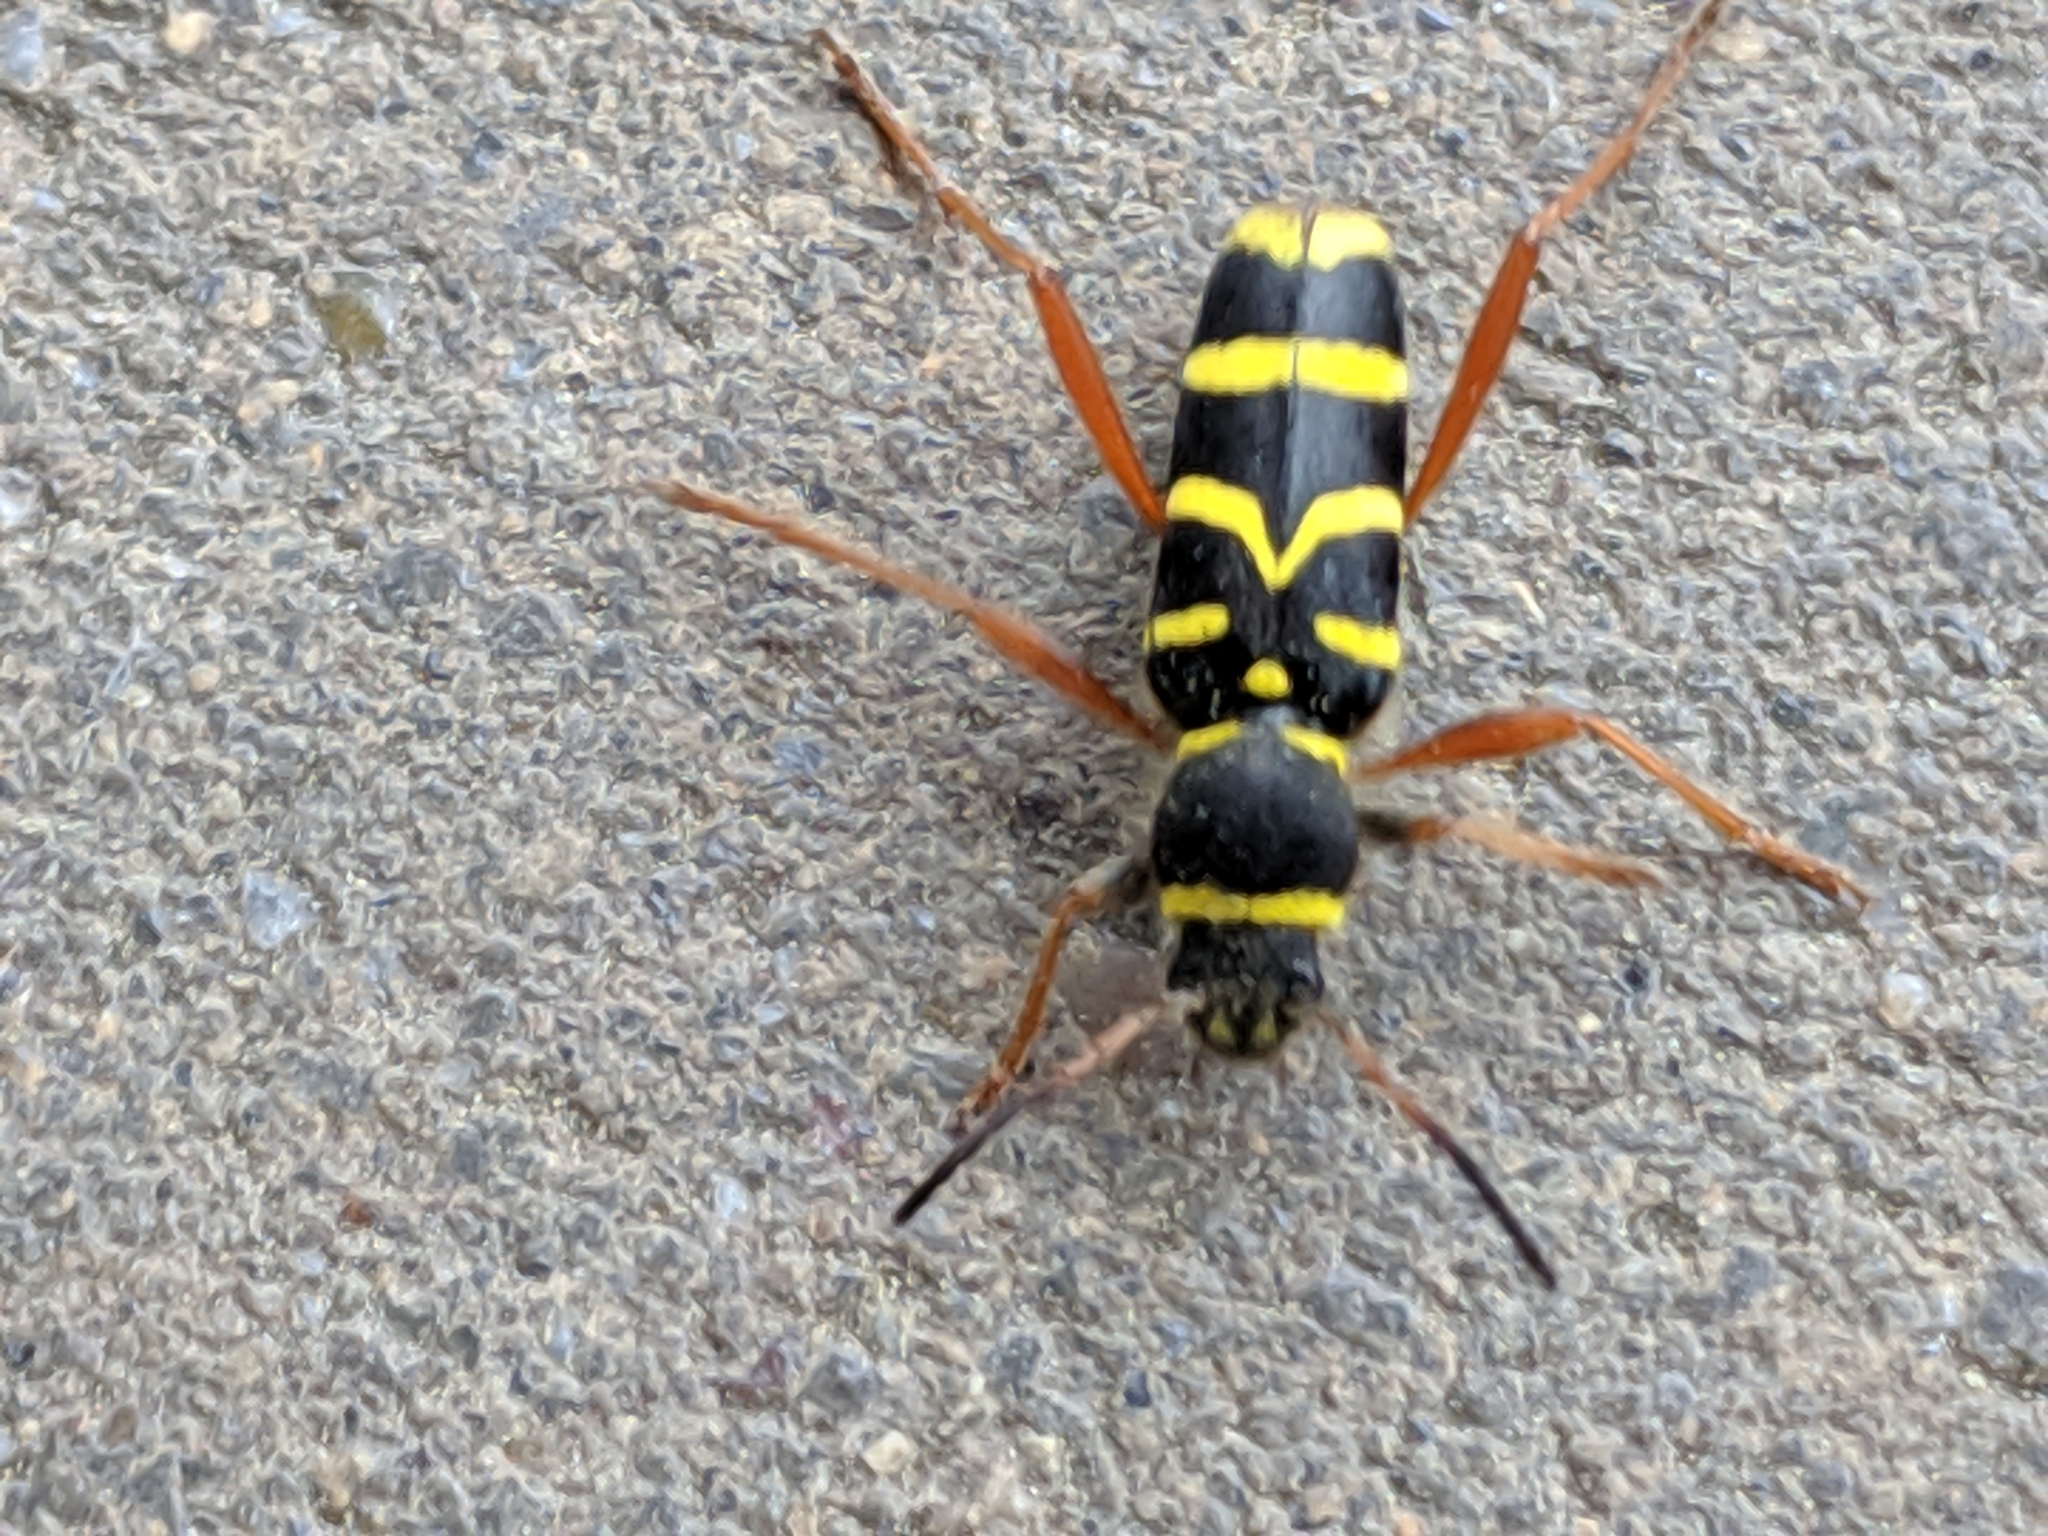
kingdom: Animalia
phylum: Arthropoda
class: Insecta
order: Coleoptera
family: Cerambycidae
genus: Clytus
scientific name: Clytus arietis
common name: Wasp beetle
